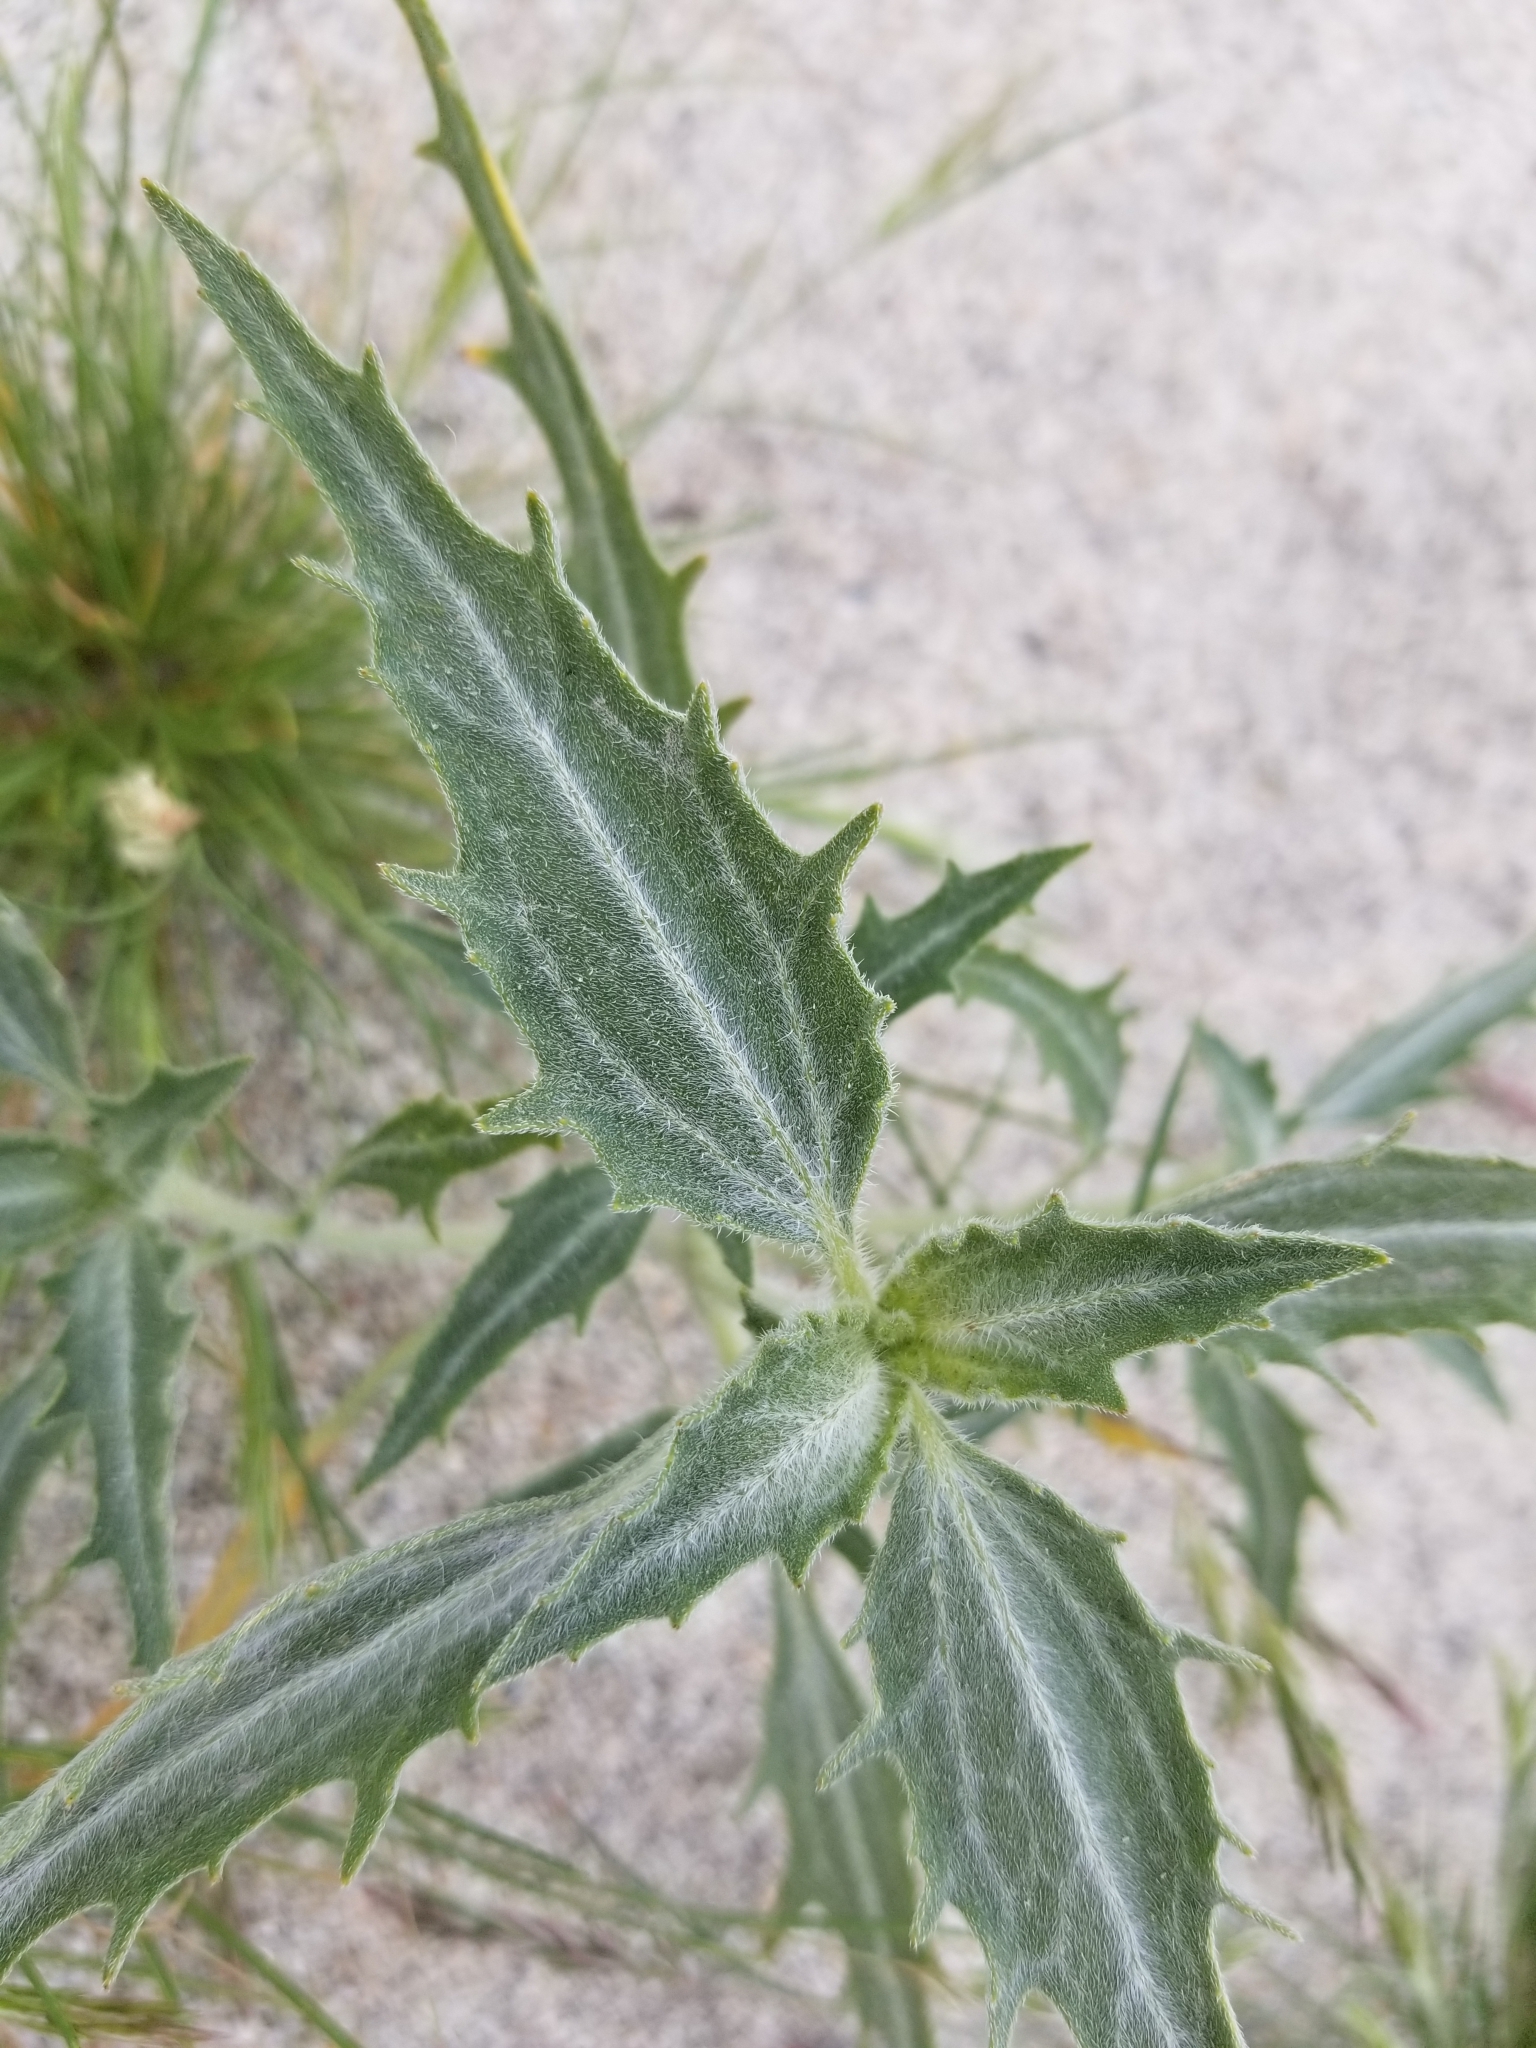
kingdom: Plantae
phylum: Tracheophyta
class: Magnoliopsida
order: Asterales
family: Asteraceae
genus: Dicoria
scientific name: Dicoria canescens
